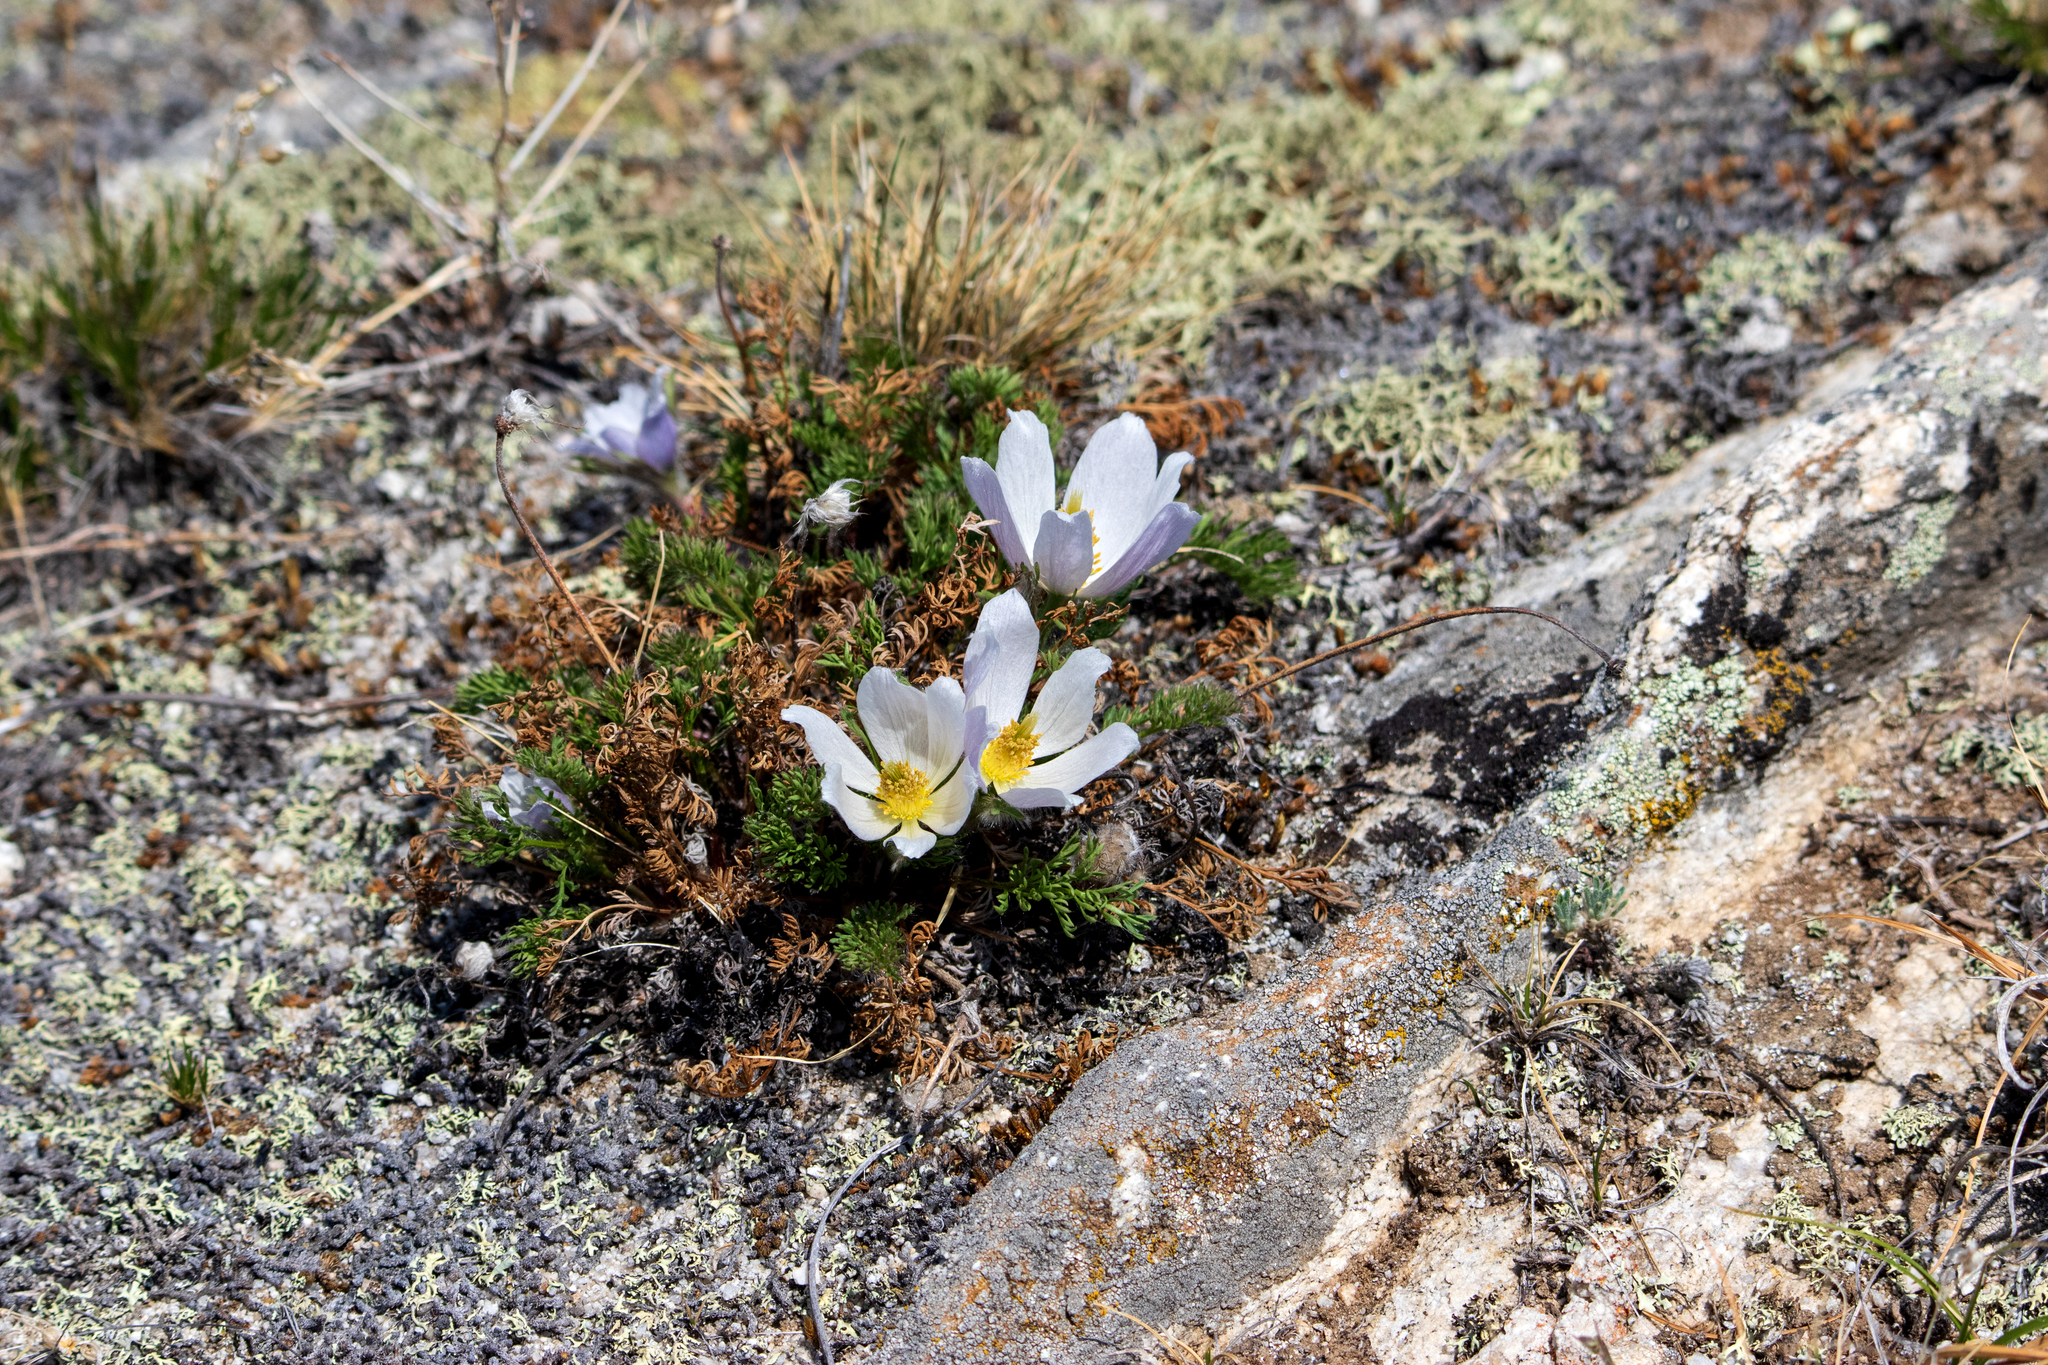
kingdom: Plantae
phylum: Tracheophyta
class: Magnoliopsida
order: Ranunculales
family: Ranunculaceae
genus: Pulsatilla
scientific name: Pulsatilla tenuiloba
